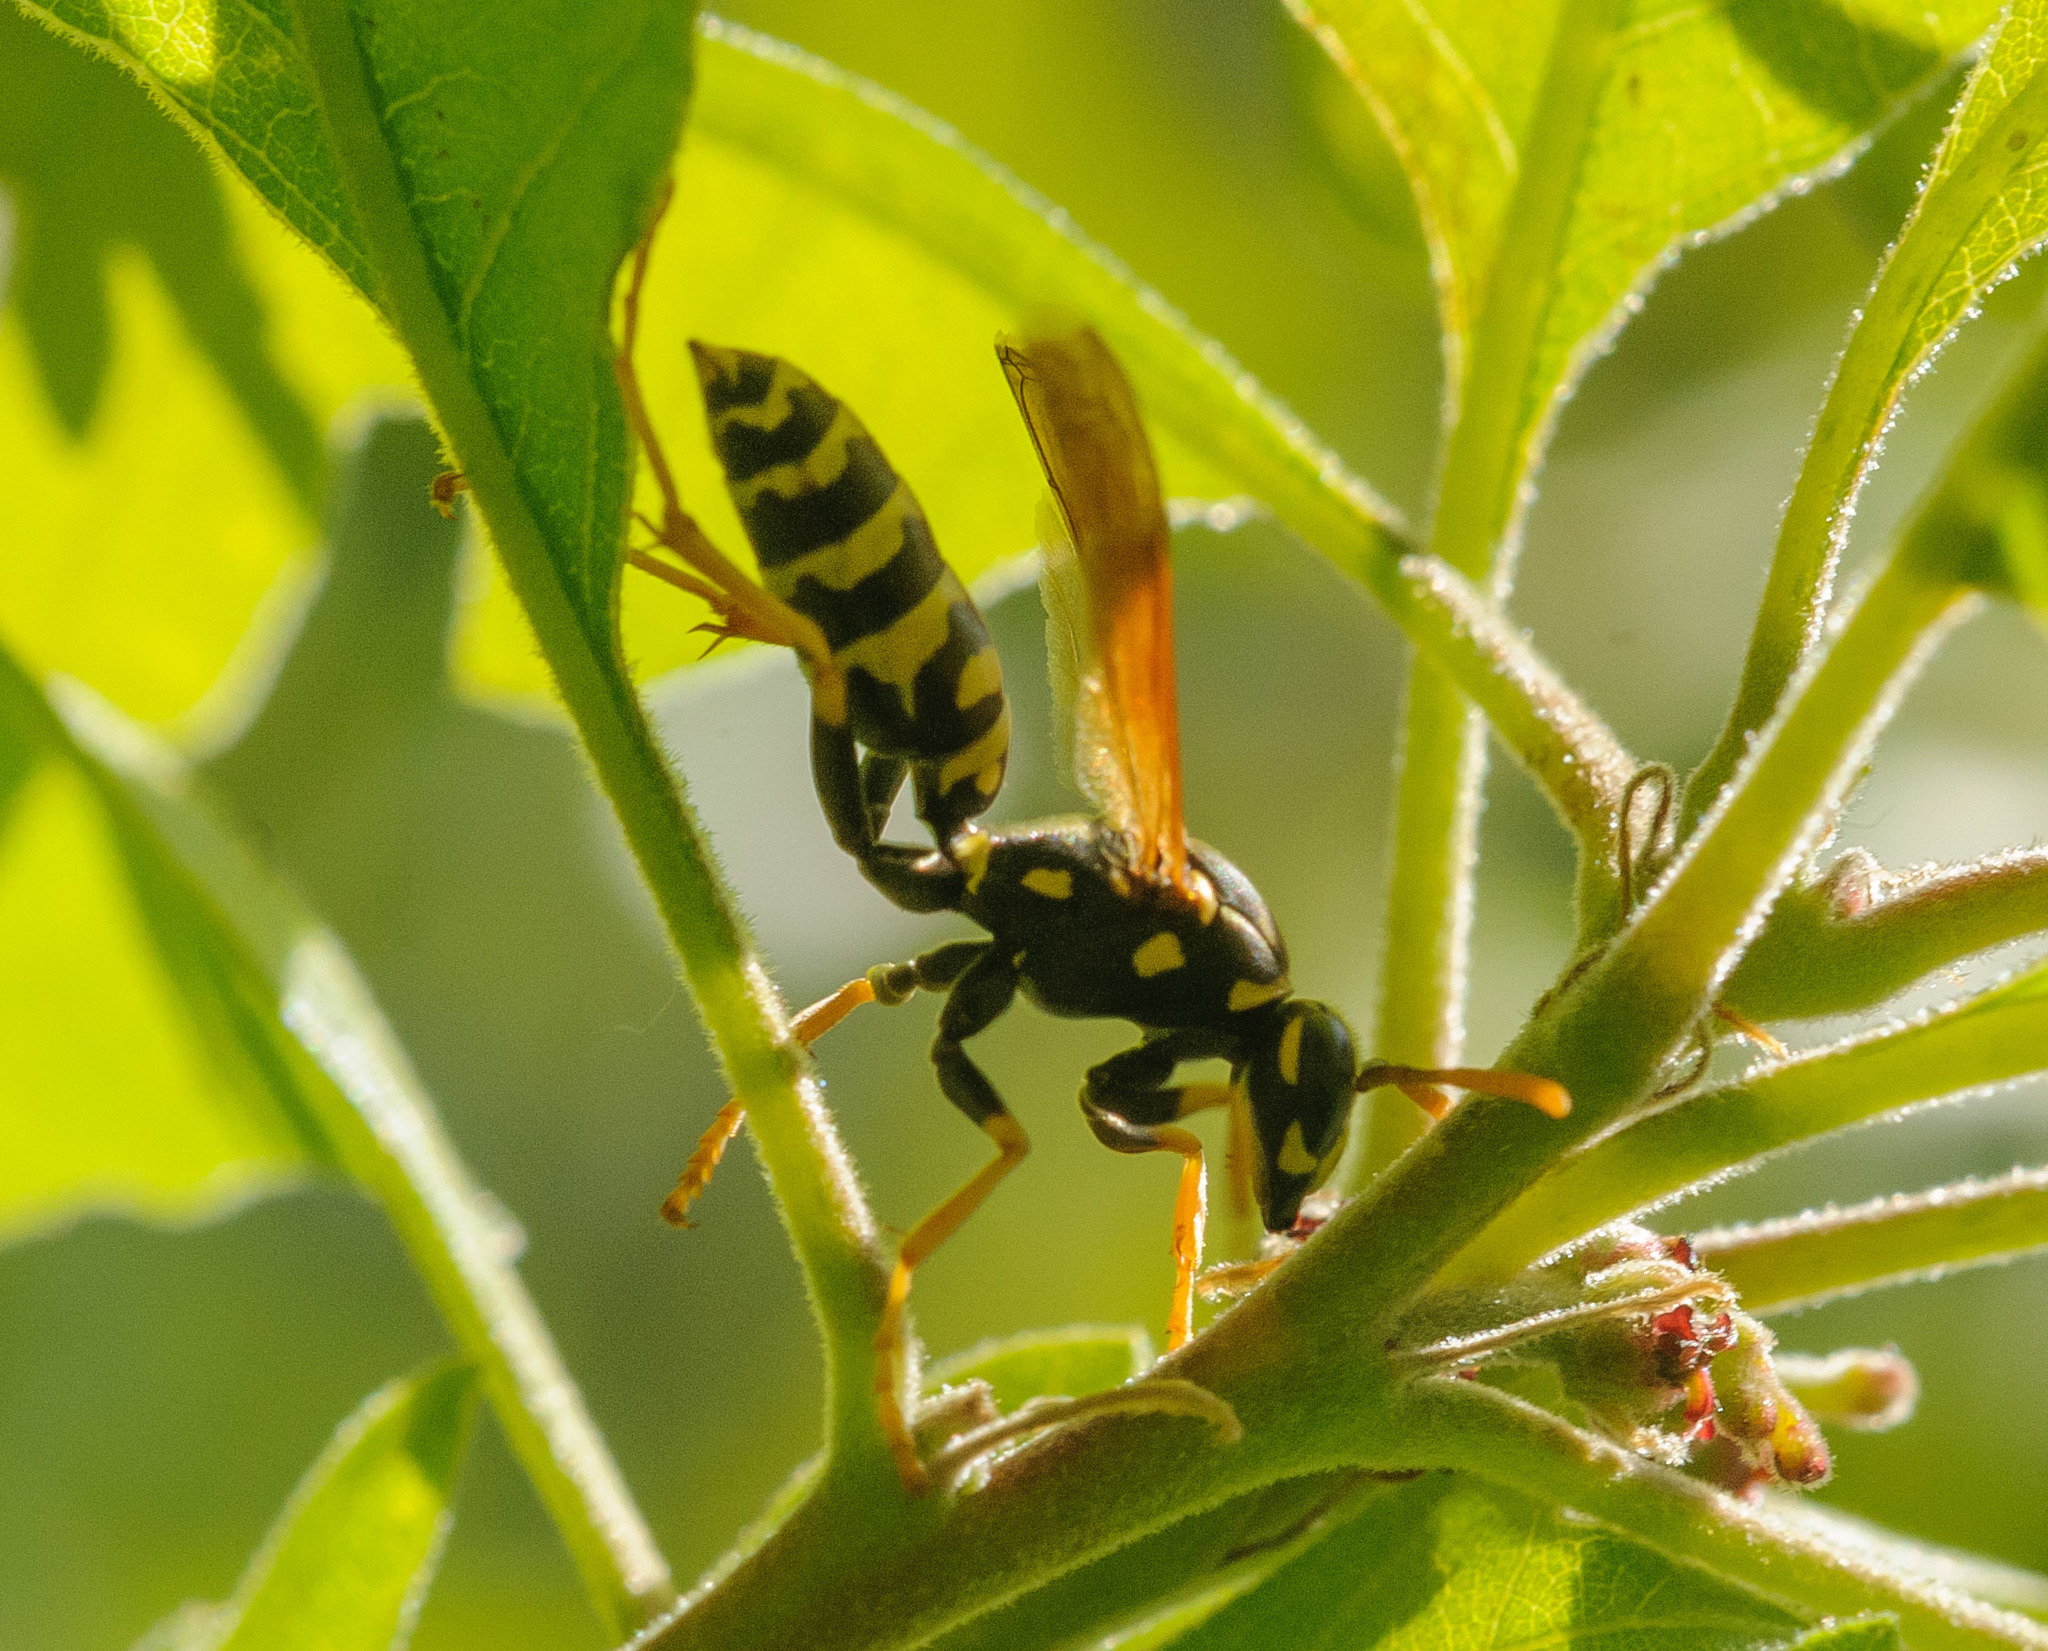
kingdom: Animalia
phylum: Arthropoda
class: Insecta
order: Hymenoptera
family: Eumenidae
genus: Polistes
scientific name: Polistes dominula
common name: Paper wasp
